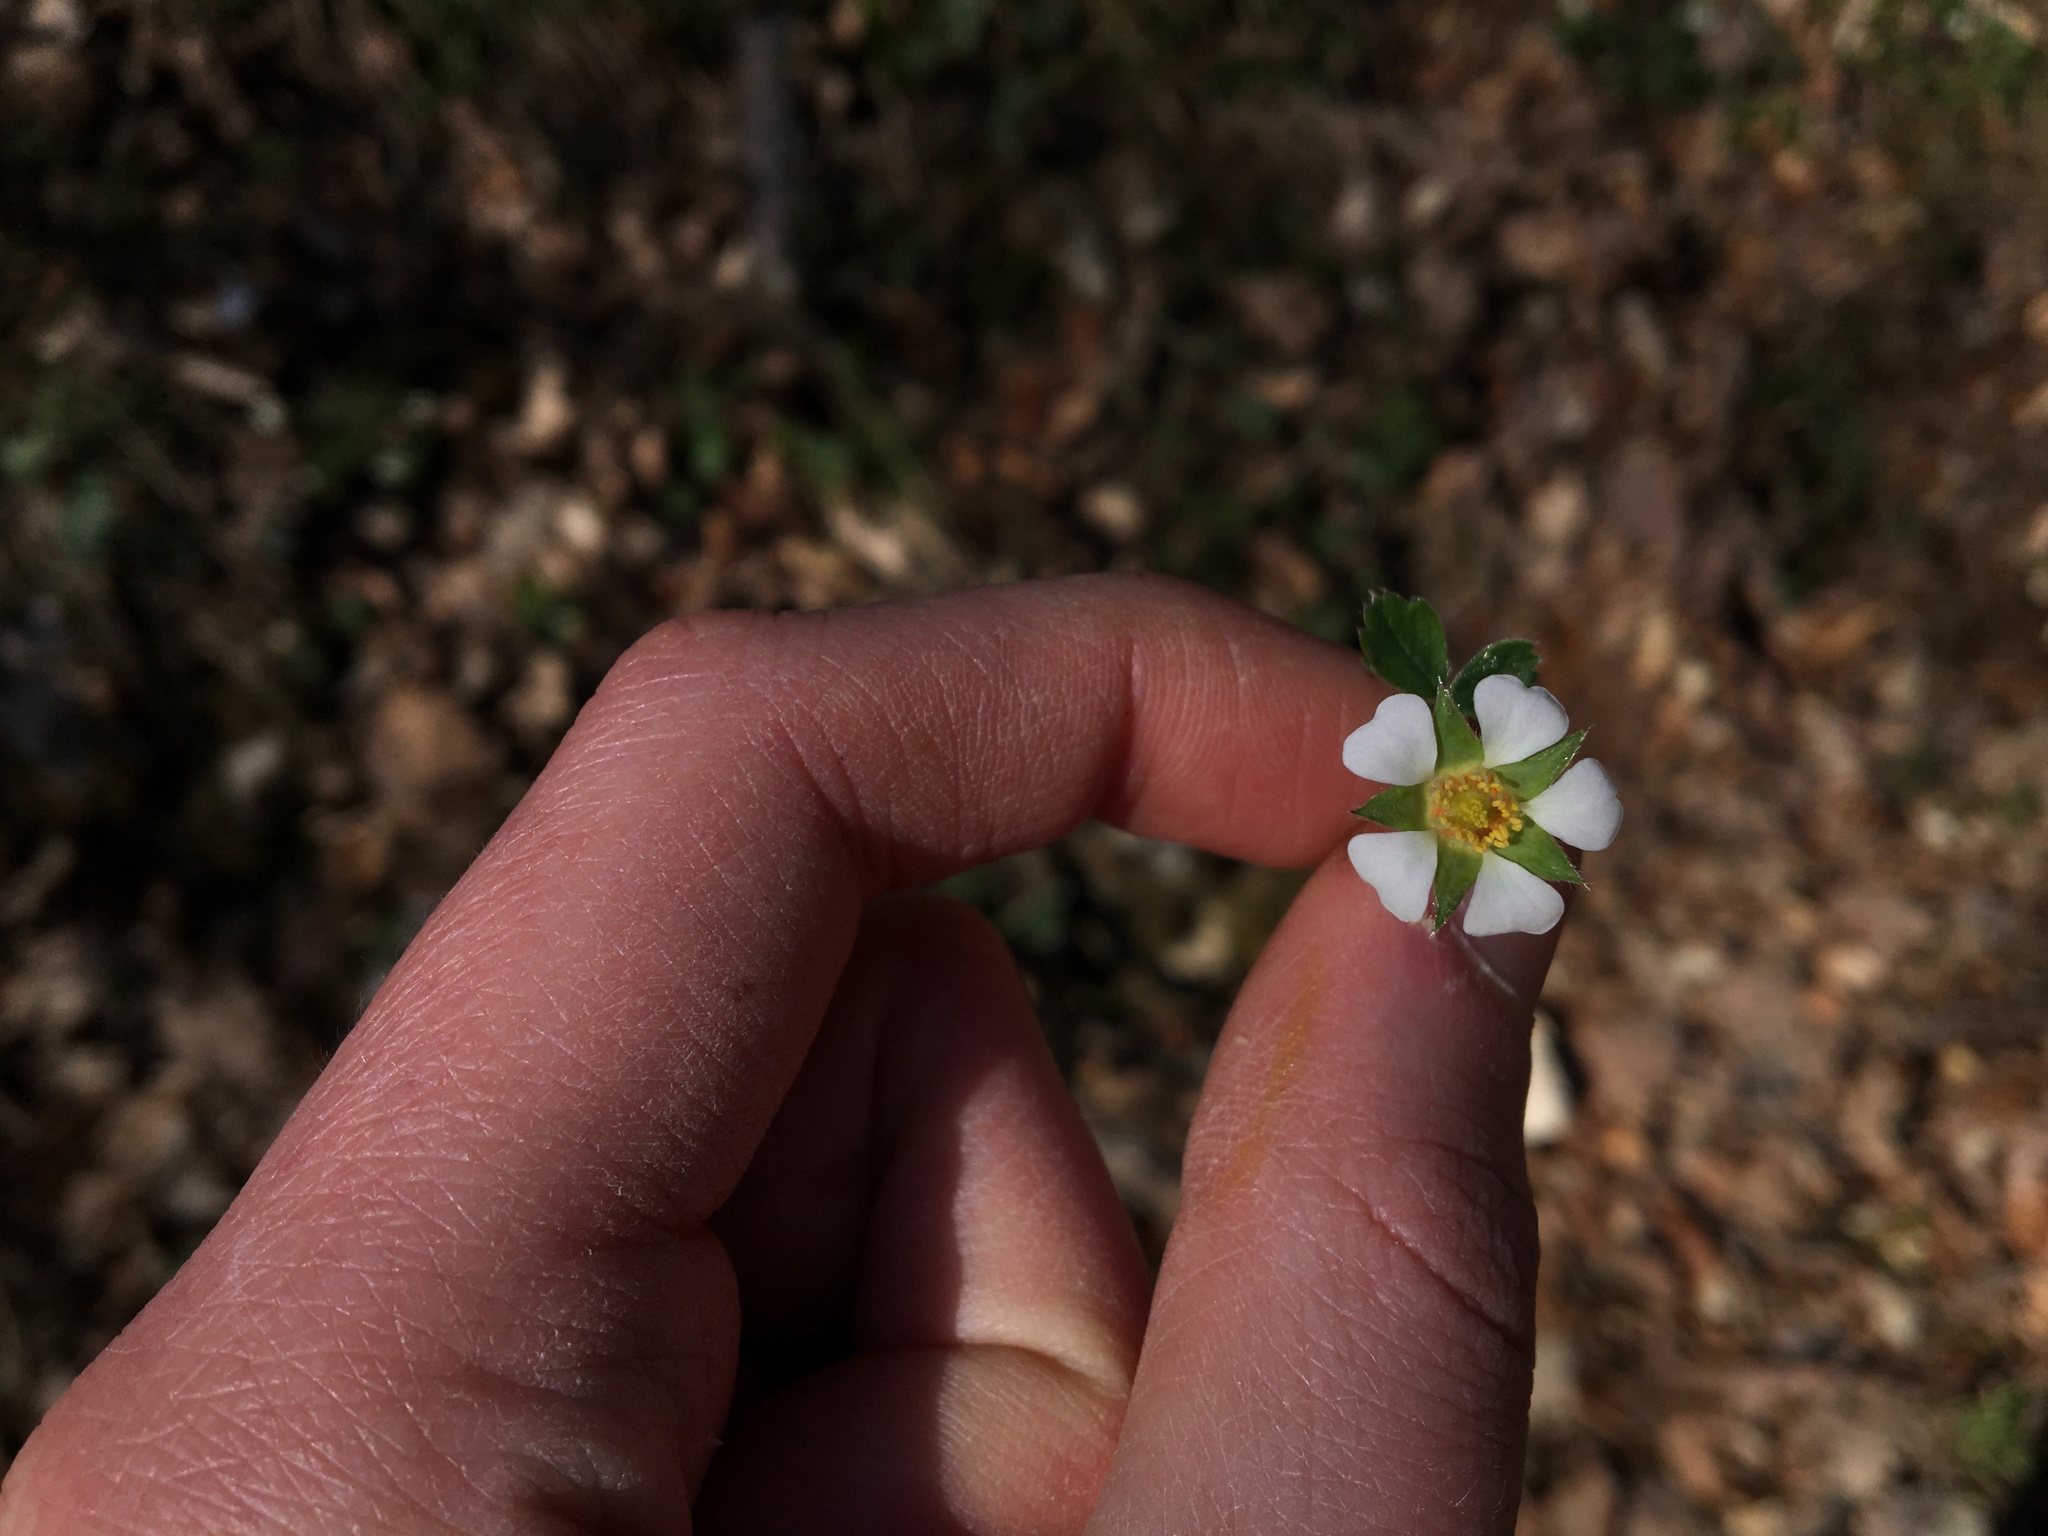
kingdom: Plantae
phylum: Tracheophyta
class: Magnoliopsida
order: Rosales
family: Rosaceae
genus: Potentilla
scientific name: Potentilla sterilis
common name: Barren strawberry
